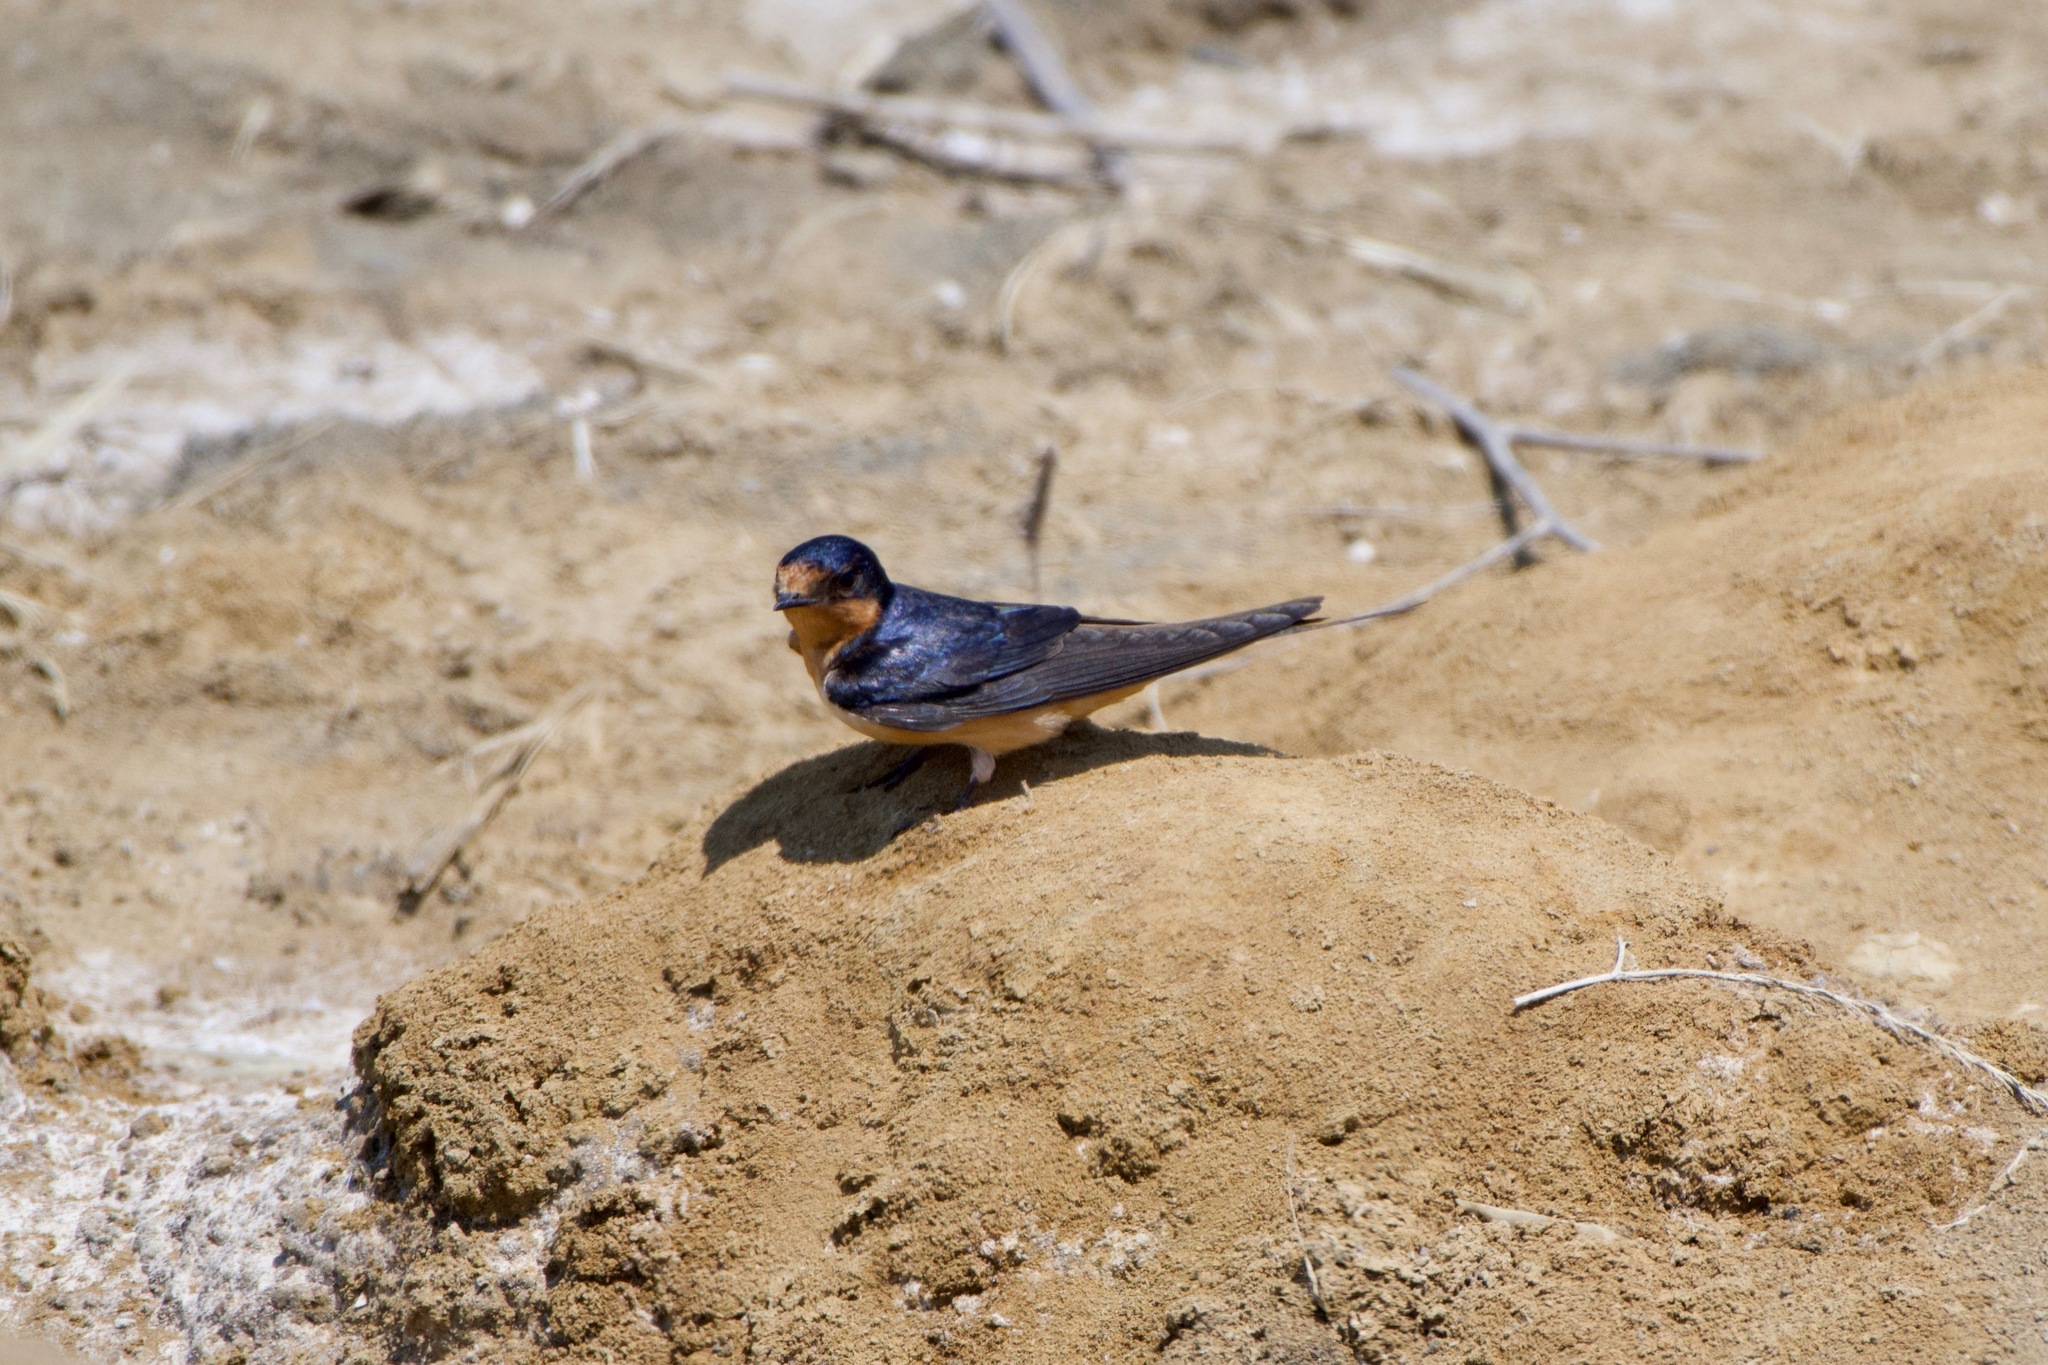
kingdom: Animalia
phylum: Chordata
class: Aves
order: Passeriformes
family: Hirundinidae
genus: Hirundo
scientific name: Hirundo rustica
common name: Barn swallow
